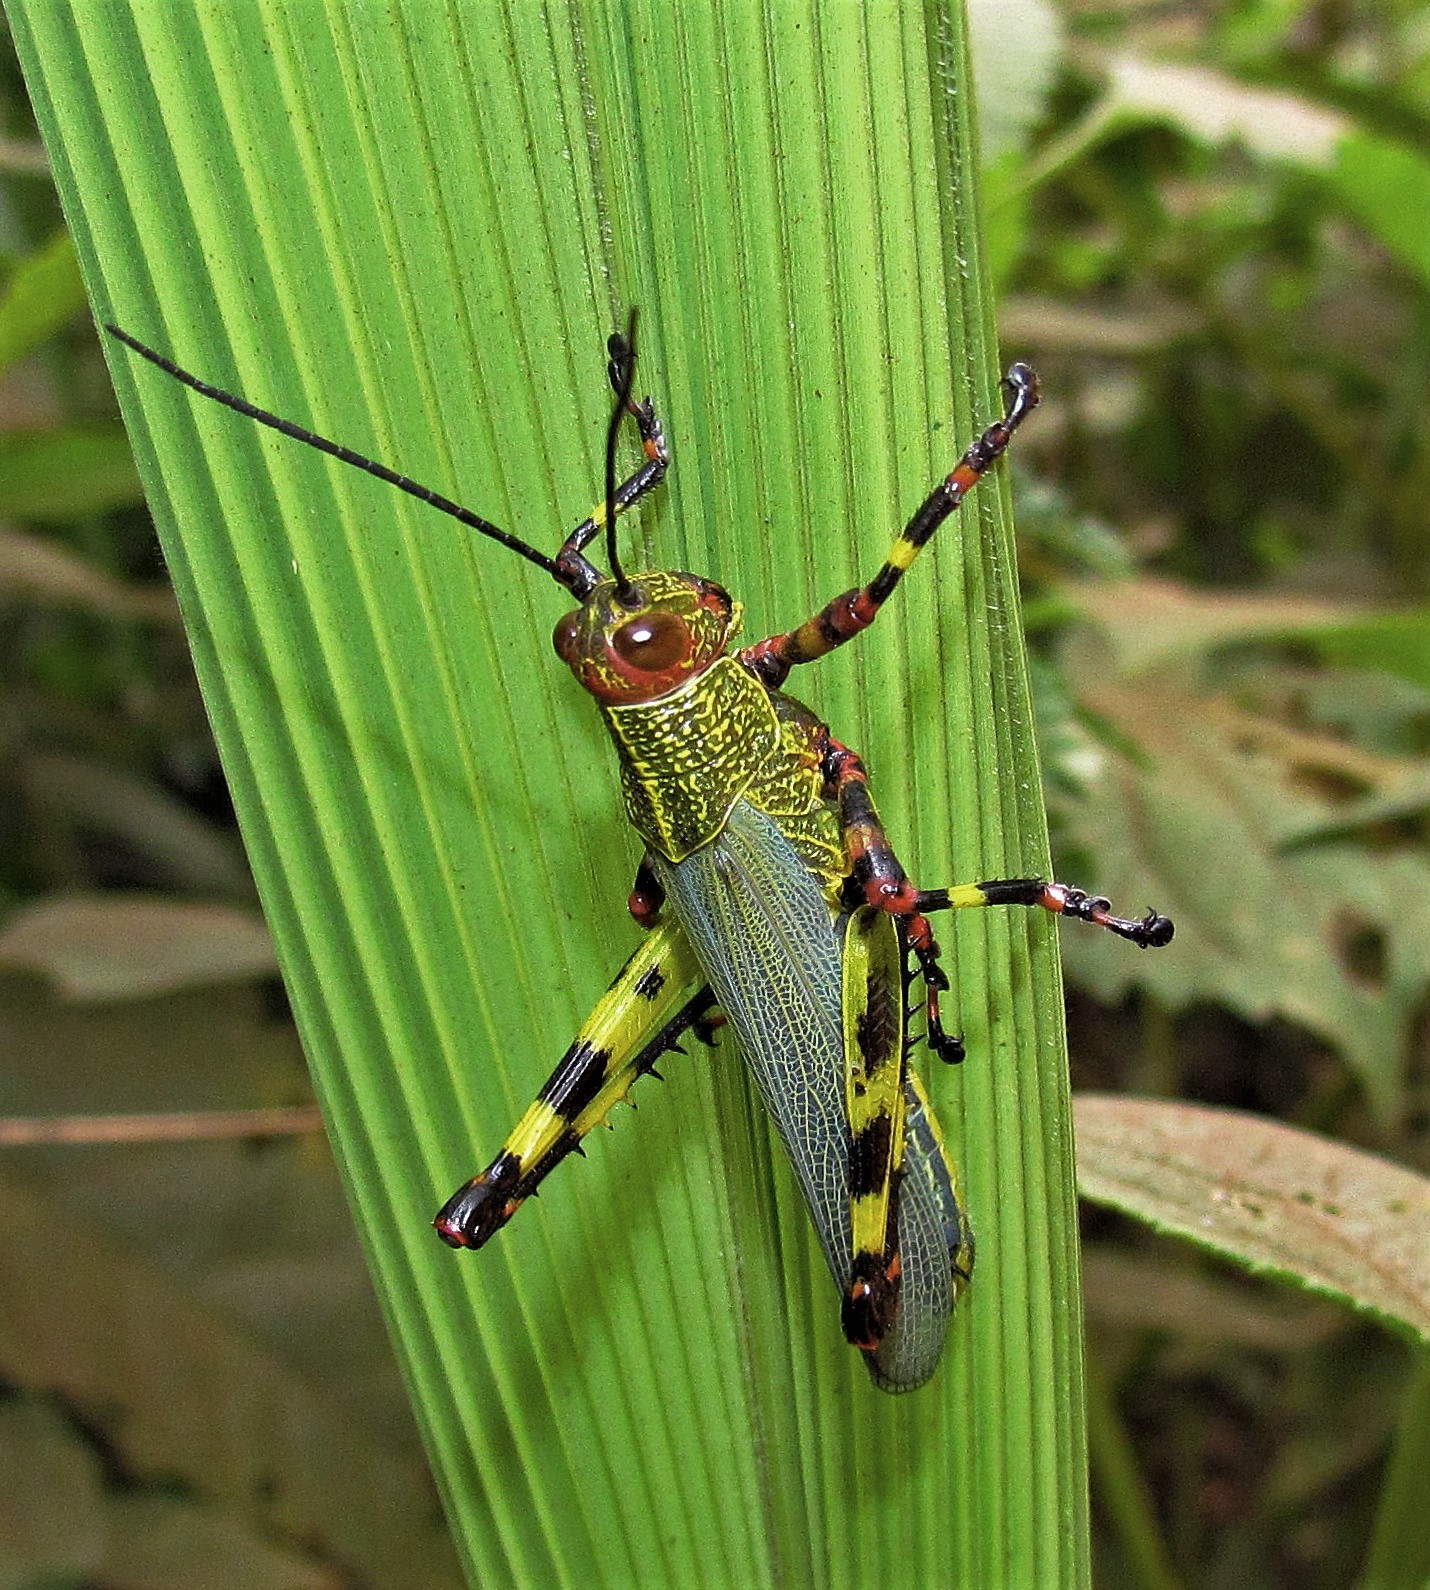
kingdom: Animalia
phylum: Arthropoda
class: Insecta
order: Orthoptera
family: Romaleidae
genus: Zoniopoda
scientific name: Zoniopoda tarsata
